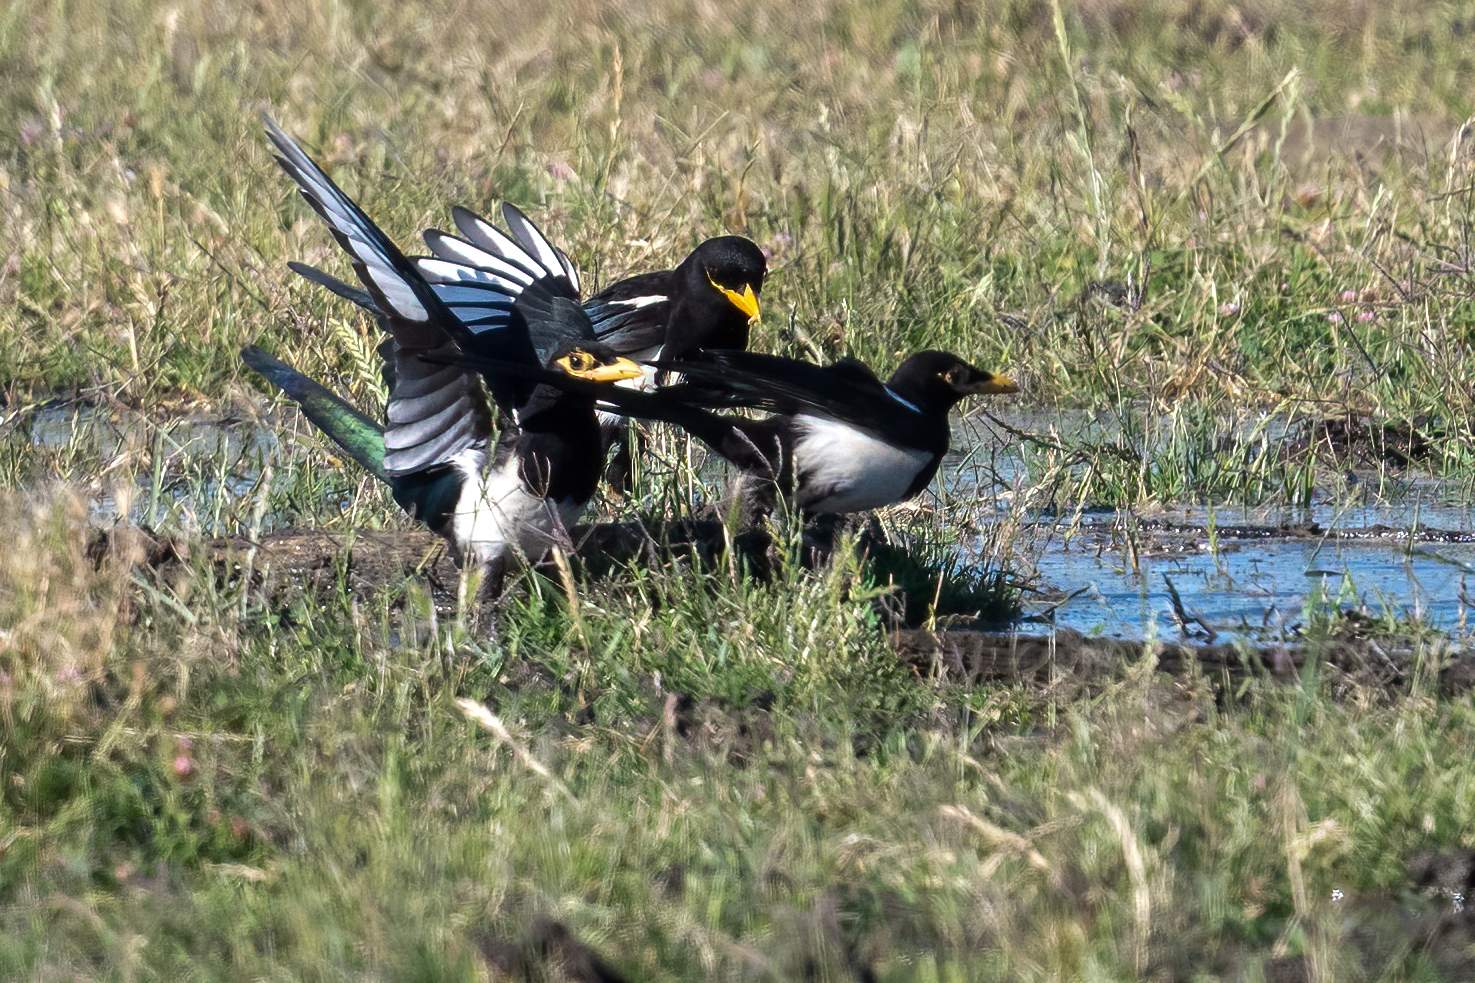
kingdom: Animalia
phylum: Chordata
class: Aves
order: Passeriformes
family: Corvidae
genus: Pica
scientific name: Pica nuttalli
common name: Yellow-billed magpie
